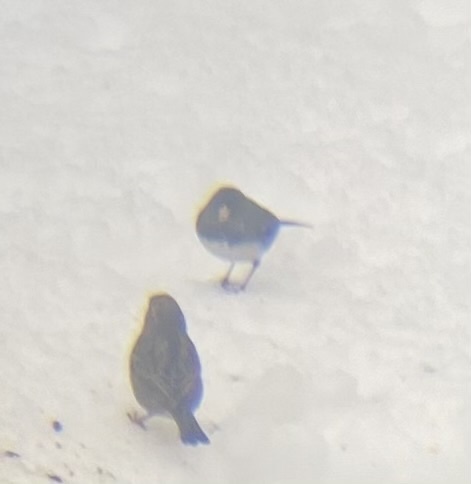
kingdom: Animalia
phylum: Chordata
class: Aves
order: Passeriformes
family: Passerellidae
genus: Junco
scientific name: Junco hyemalis
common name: Dark-eyed junco
